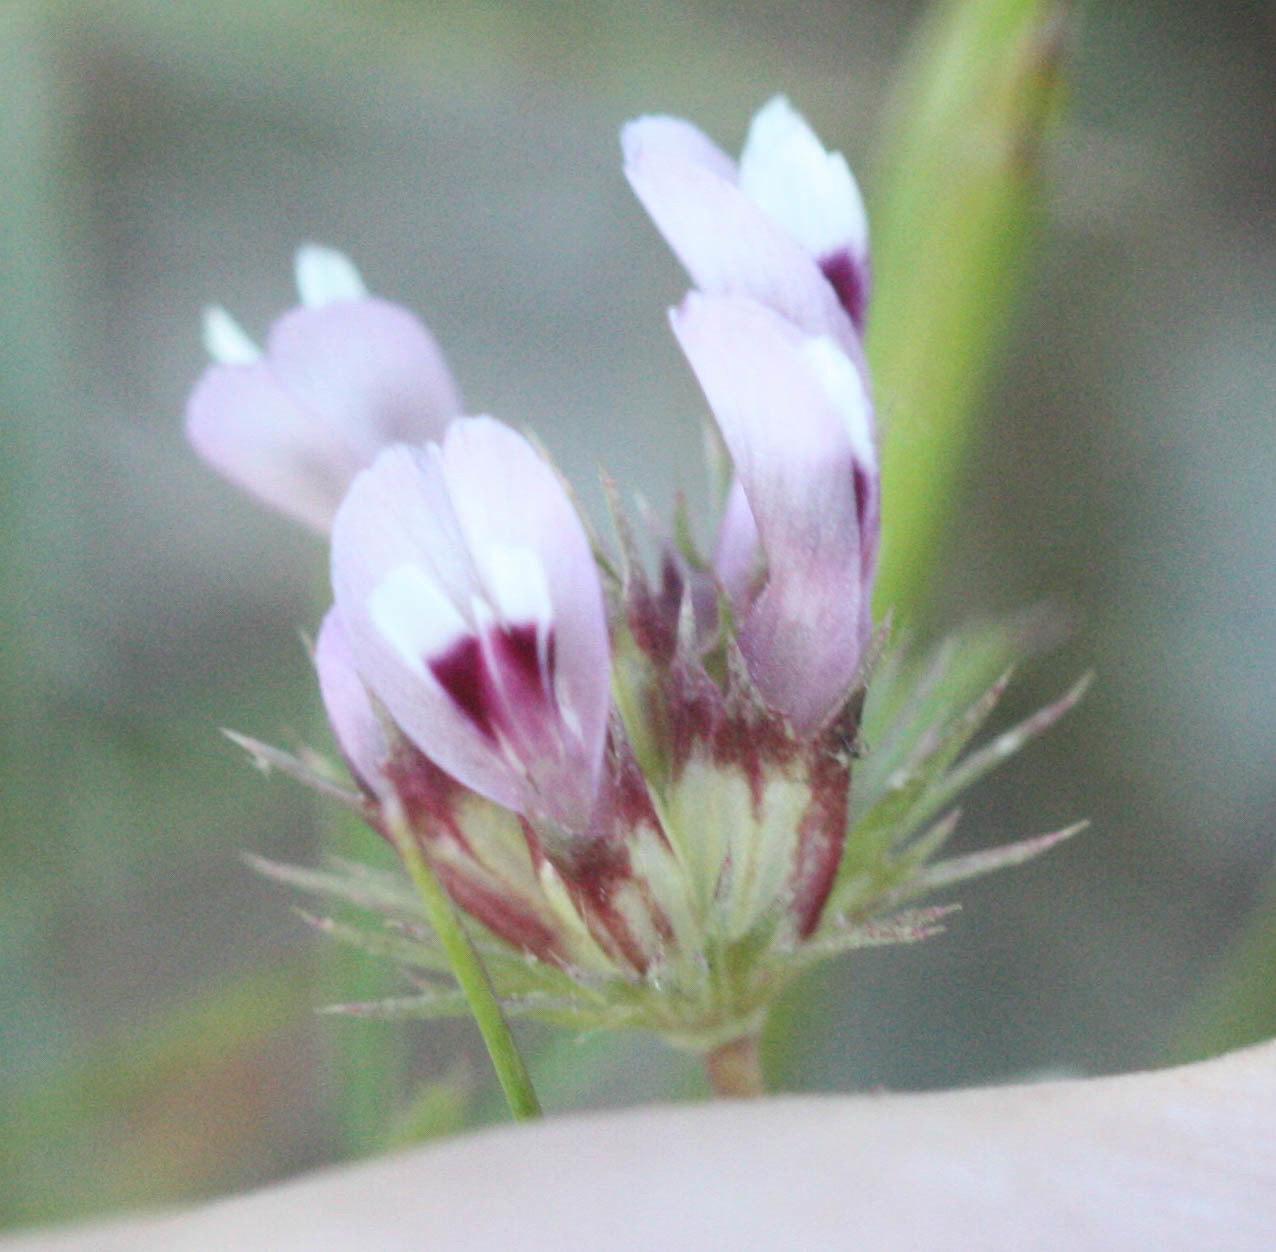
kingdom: Plantae
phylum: Tracheophyta
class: Magnoliopsida
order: Fabales
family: Fabaceae
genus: Trifolium
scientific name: Trifolium willdenovii
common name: Tomcat clover
